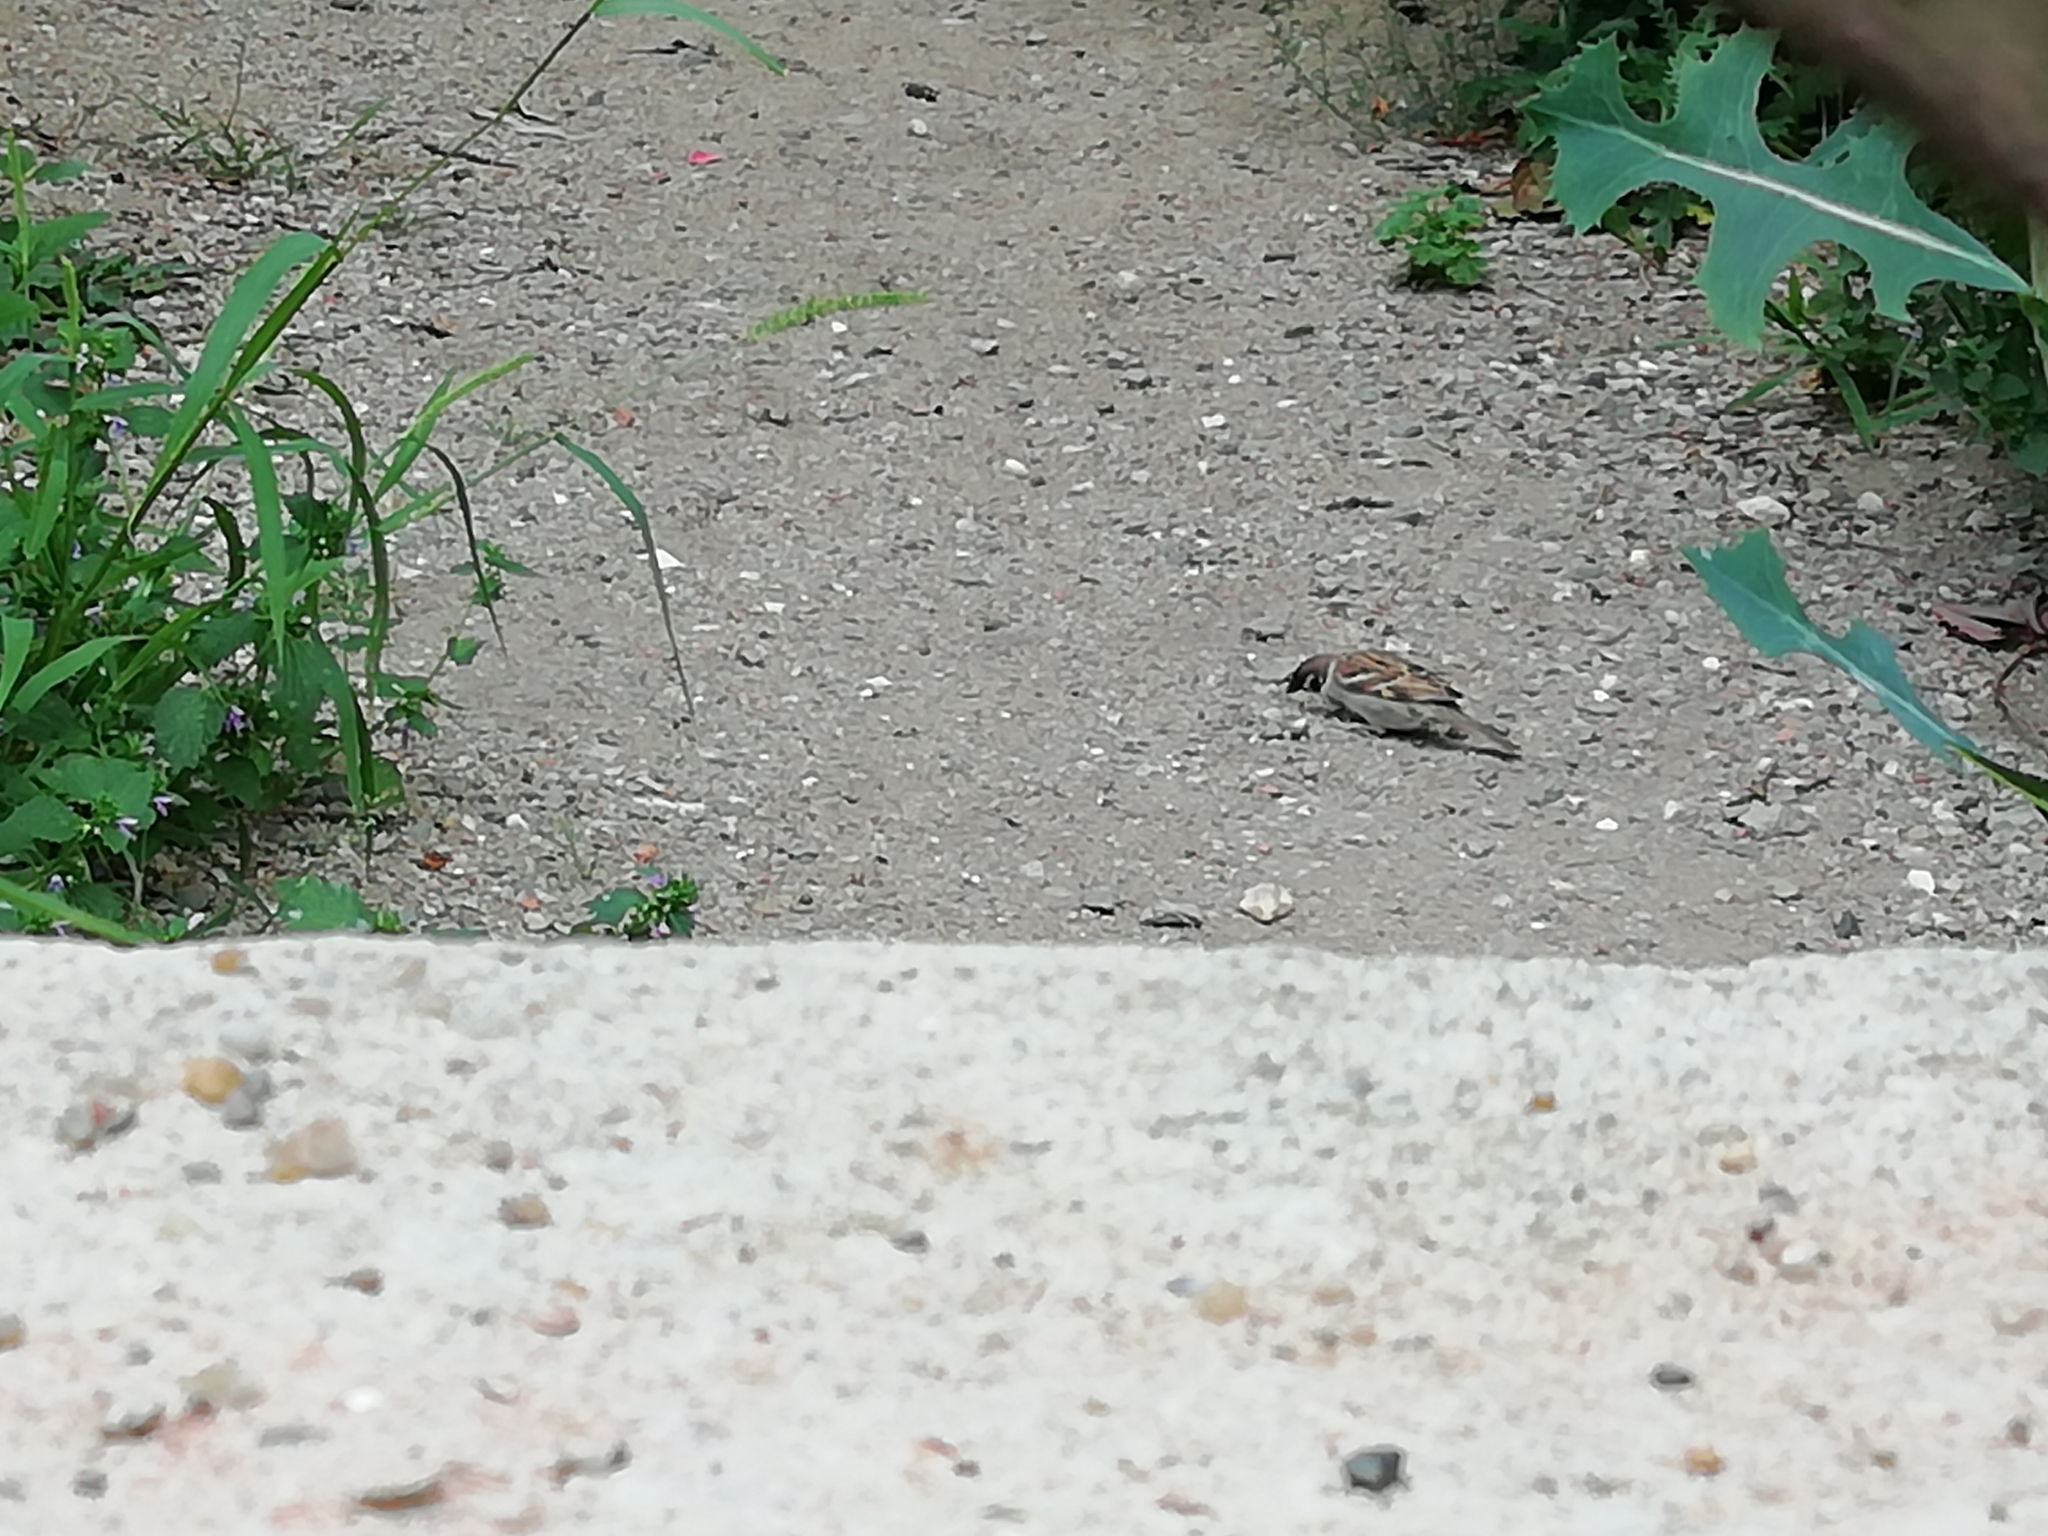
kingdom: Animalia
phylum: Chordata
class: Aves
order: Passeriformes
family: Passeridae
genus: Passer
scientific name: Passer montanus
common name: Eurasian tree sparrow
